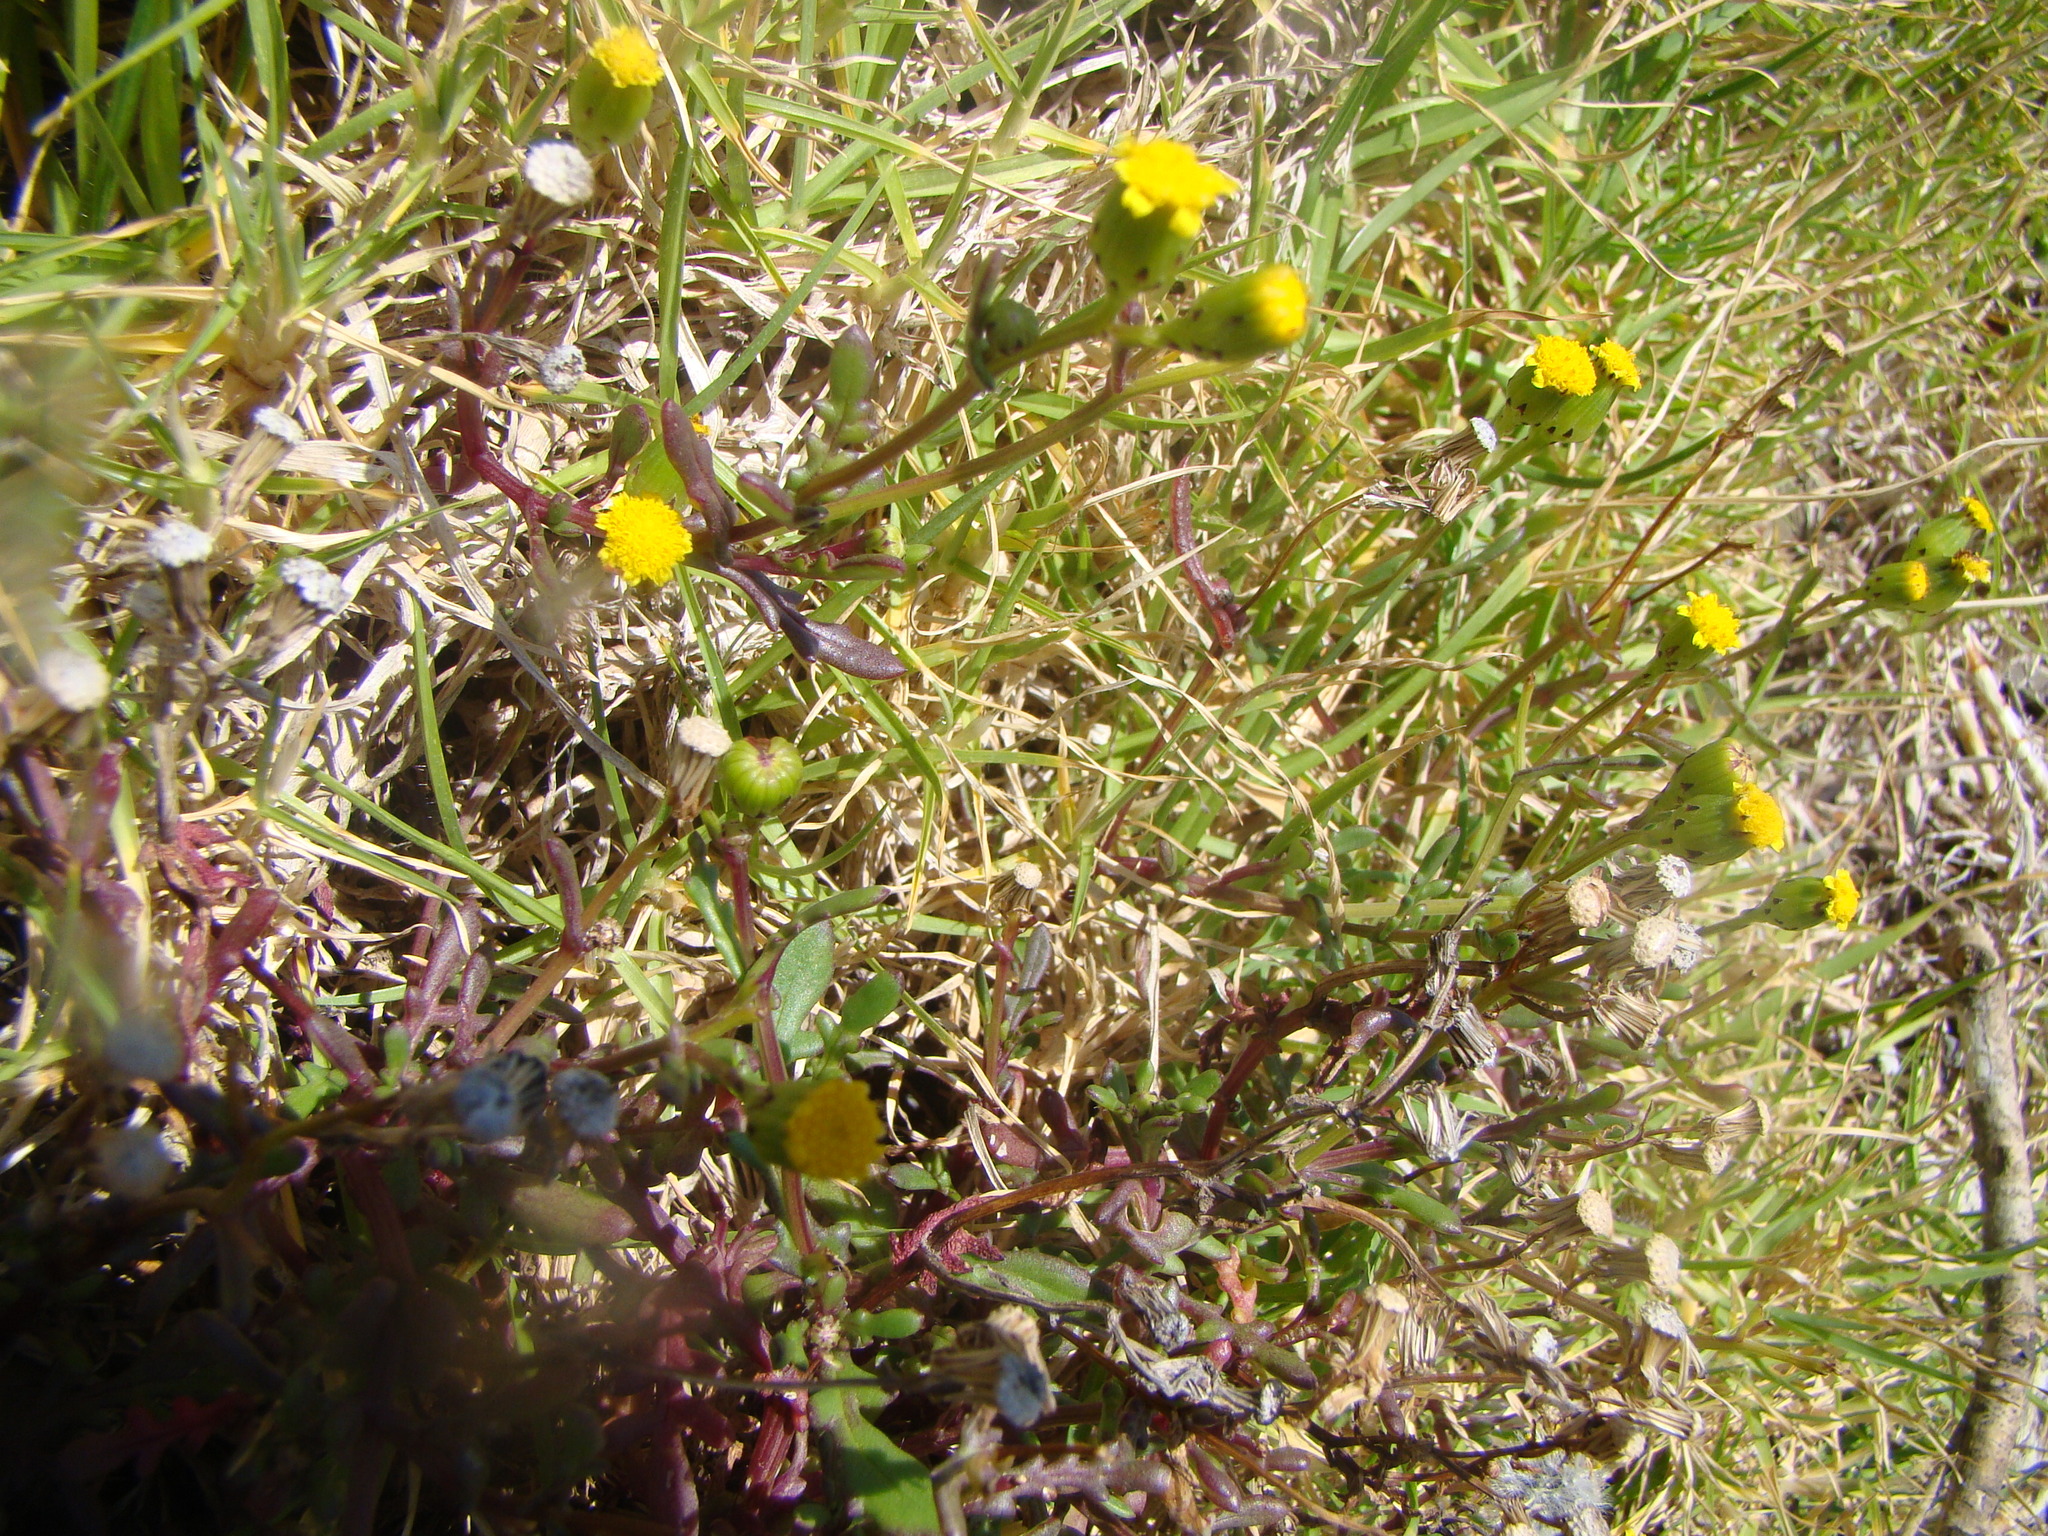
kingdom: Plantae
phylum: Tracheophyta
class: Magnoliopsida
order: Asterales
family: Asteraceae
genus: Senecio
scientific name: Senecio
